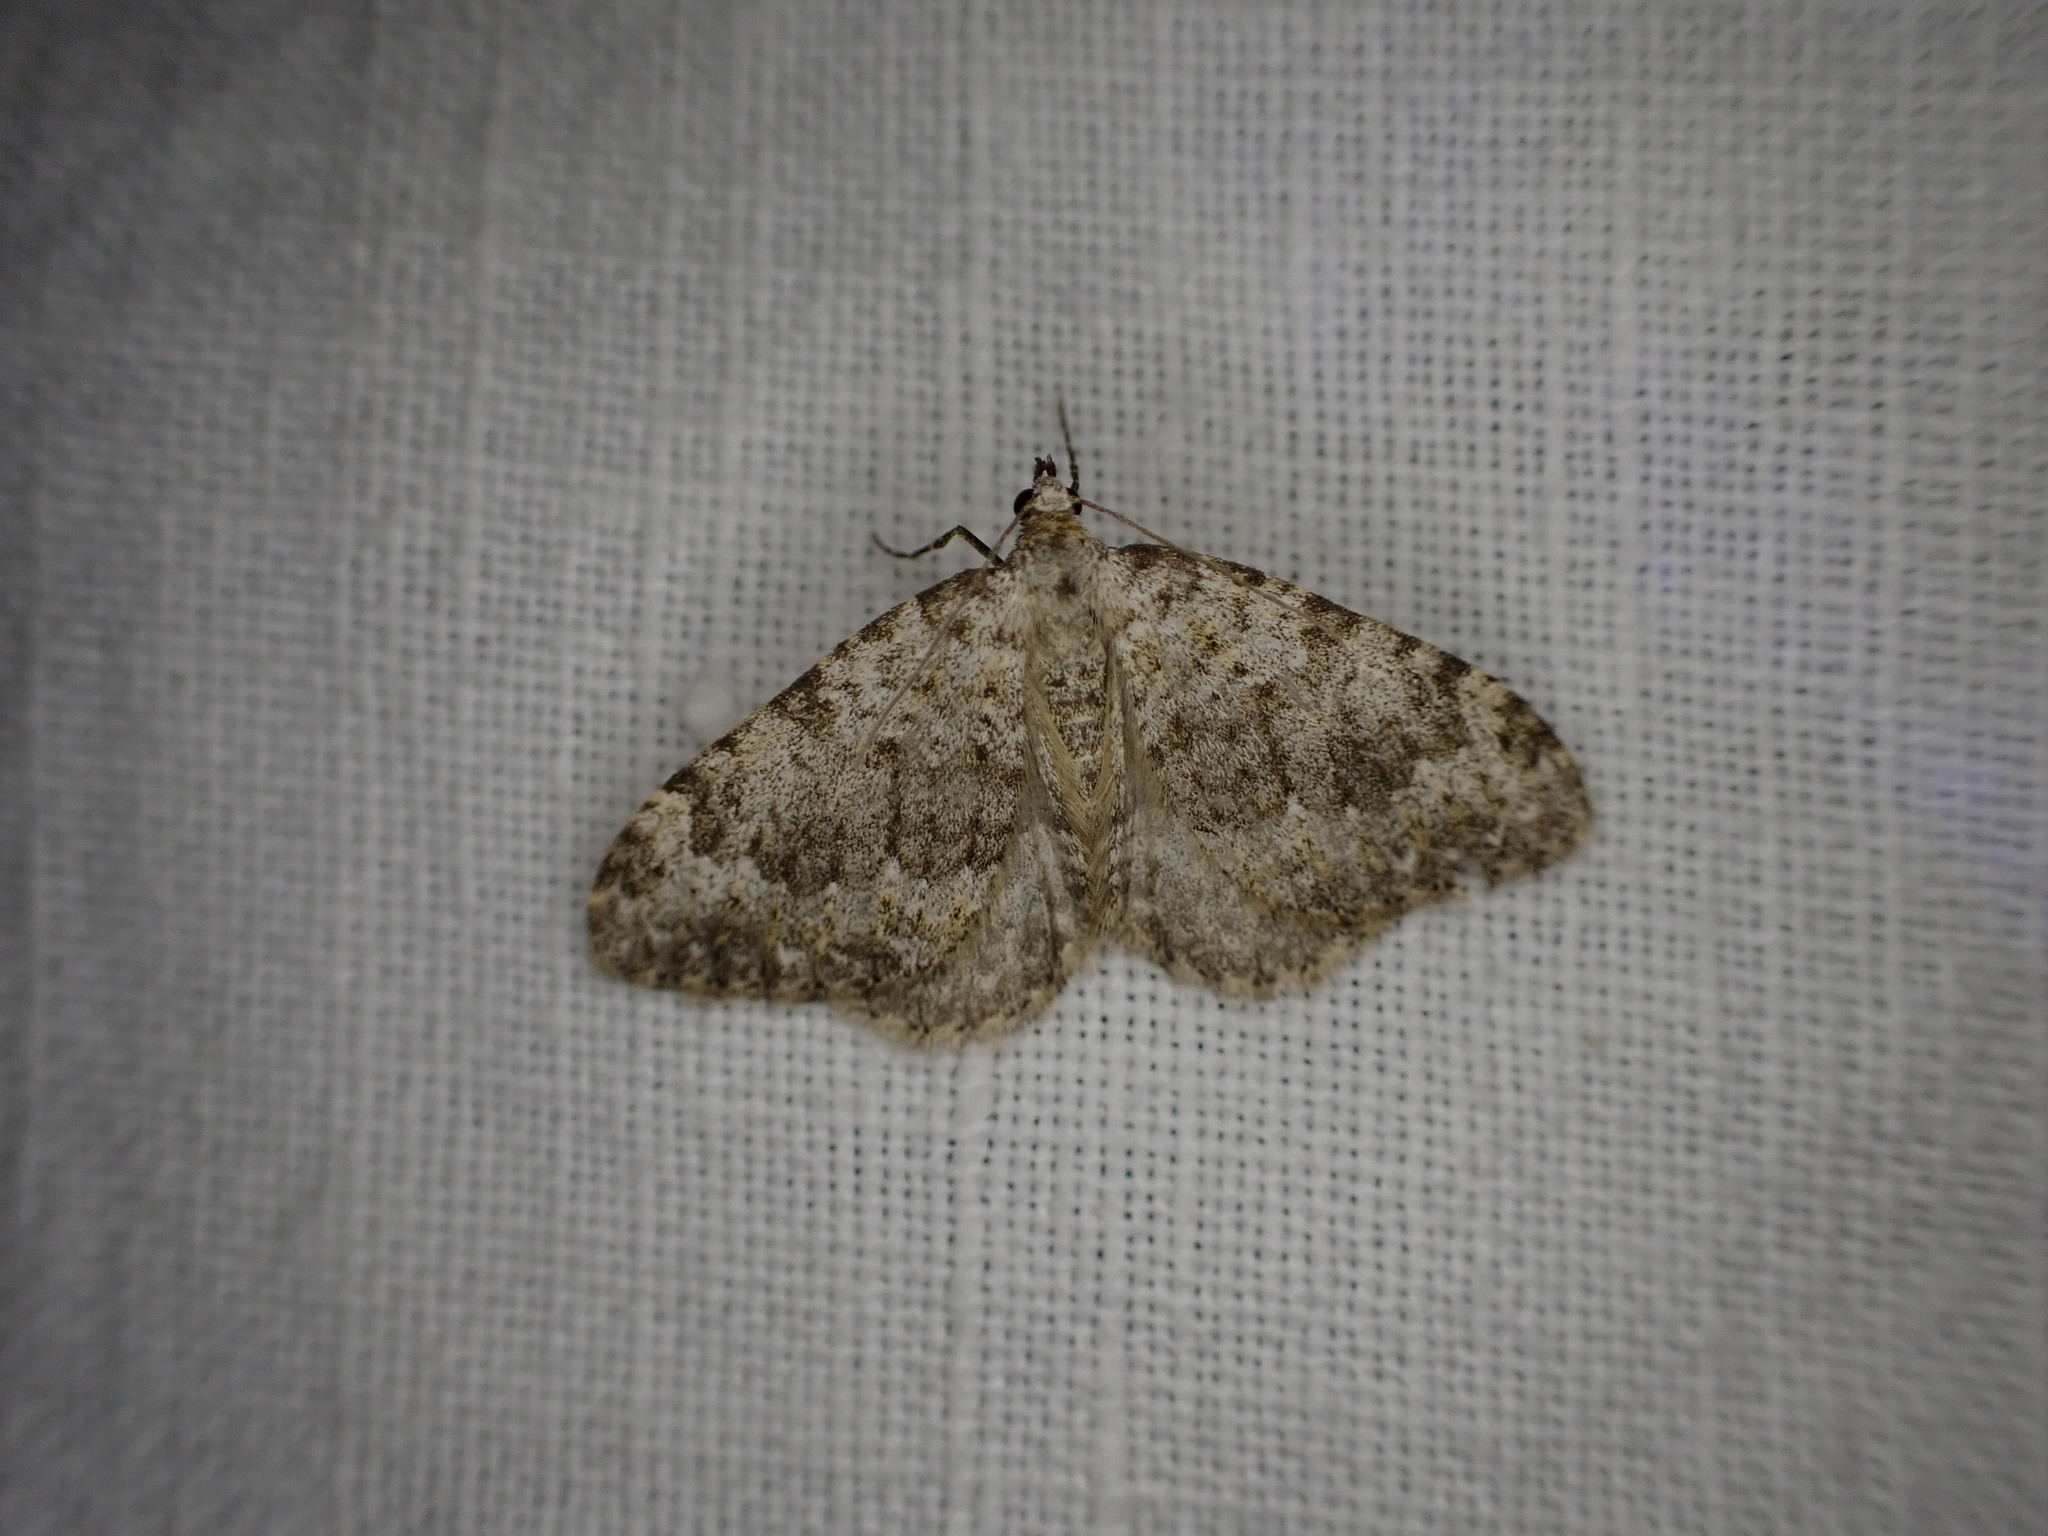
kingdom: Animalia
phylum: Arthropoda
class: Insecta
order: Lepidoptera
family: Geometridae
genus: Nebula
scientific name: Nebula salicata
